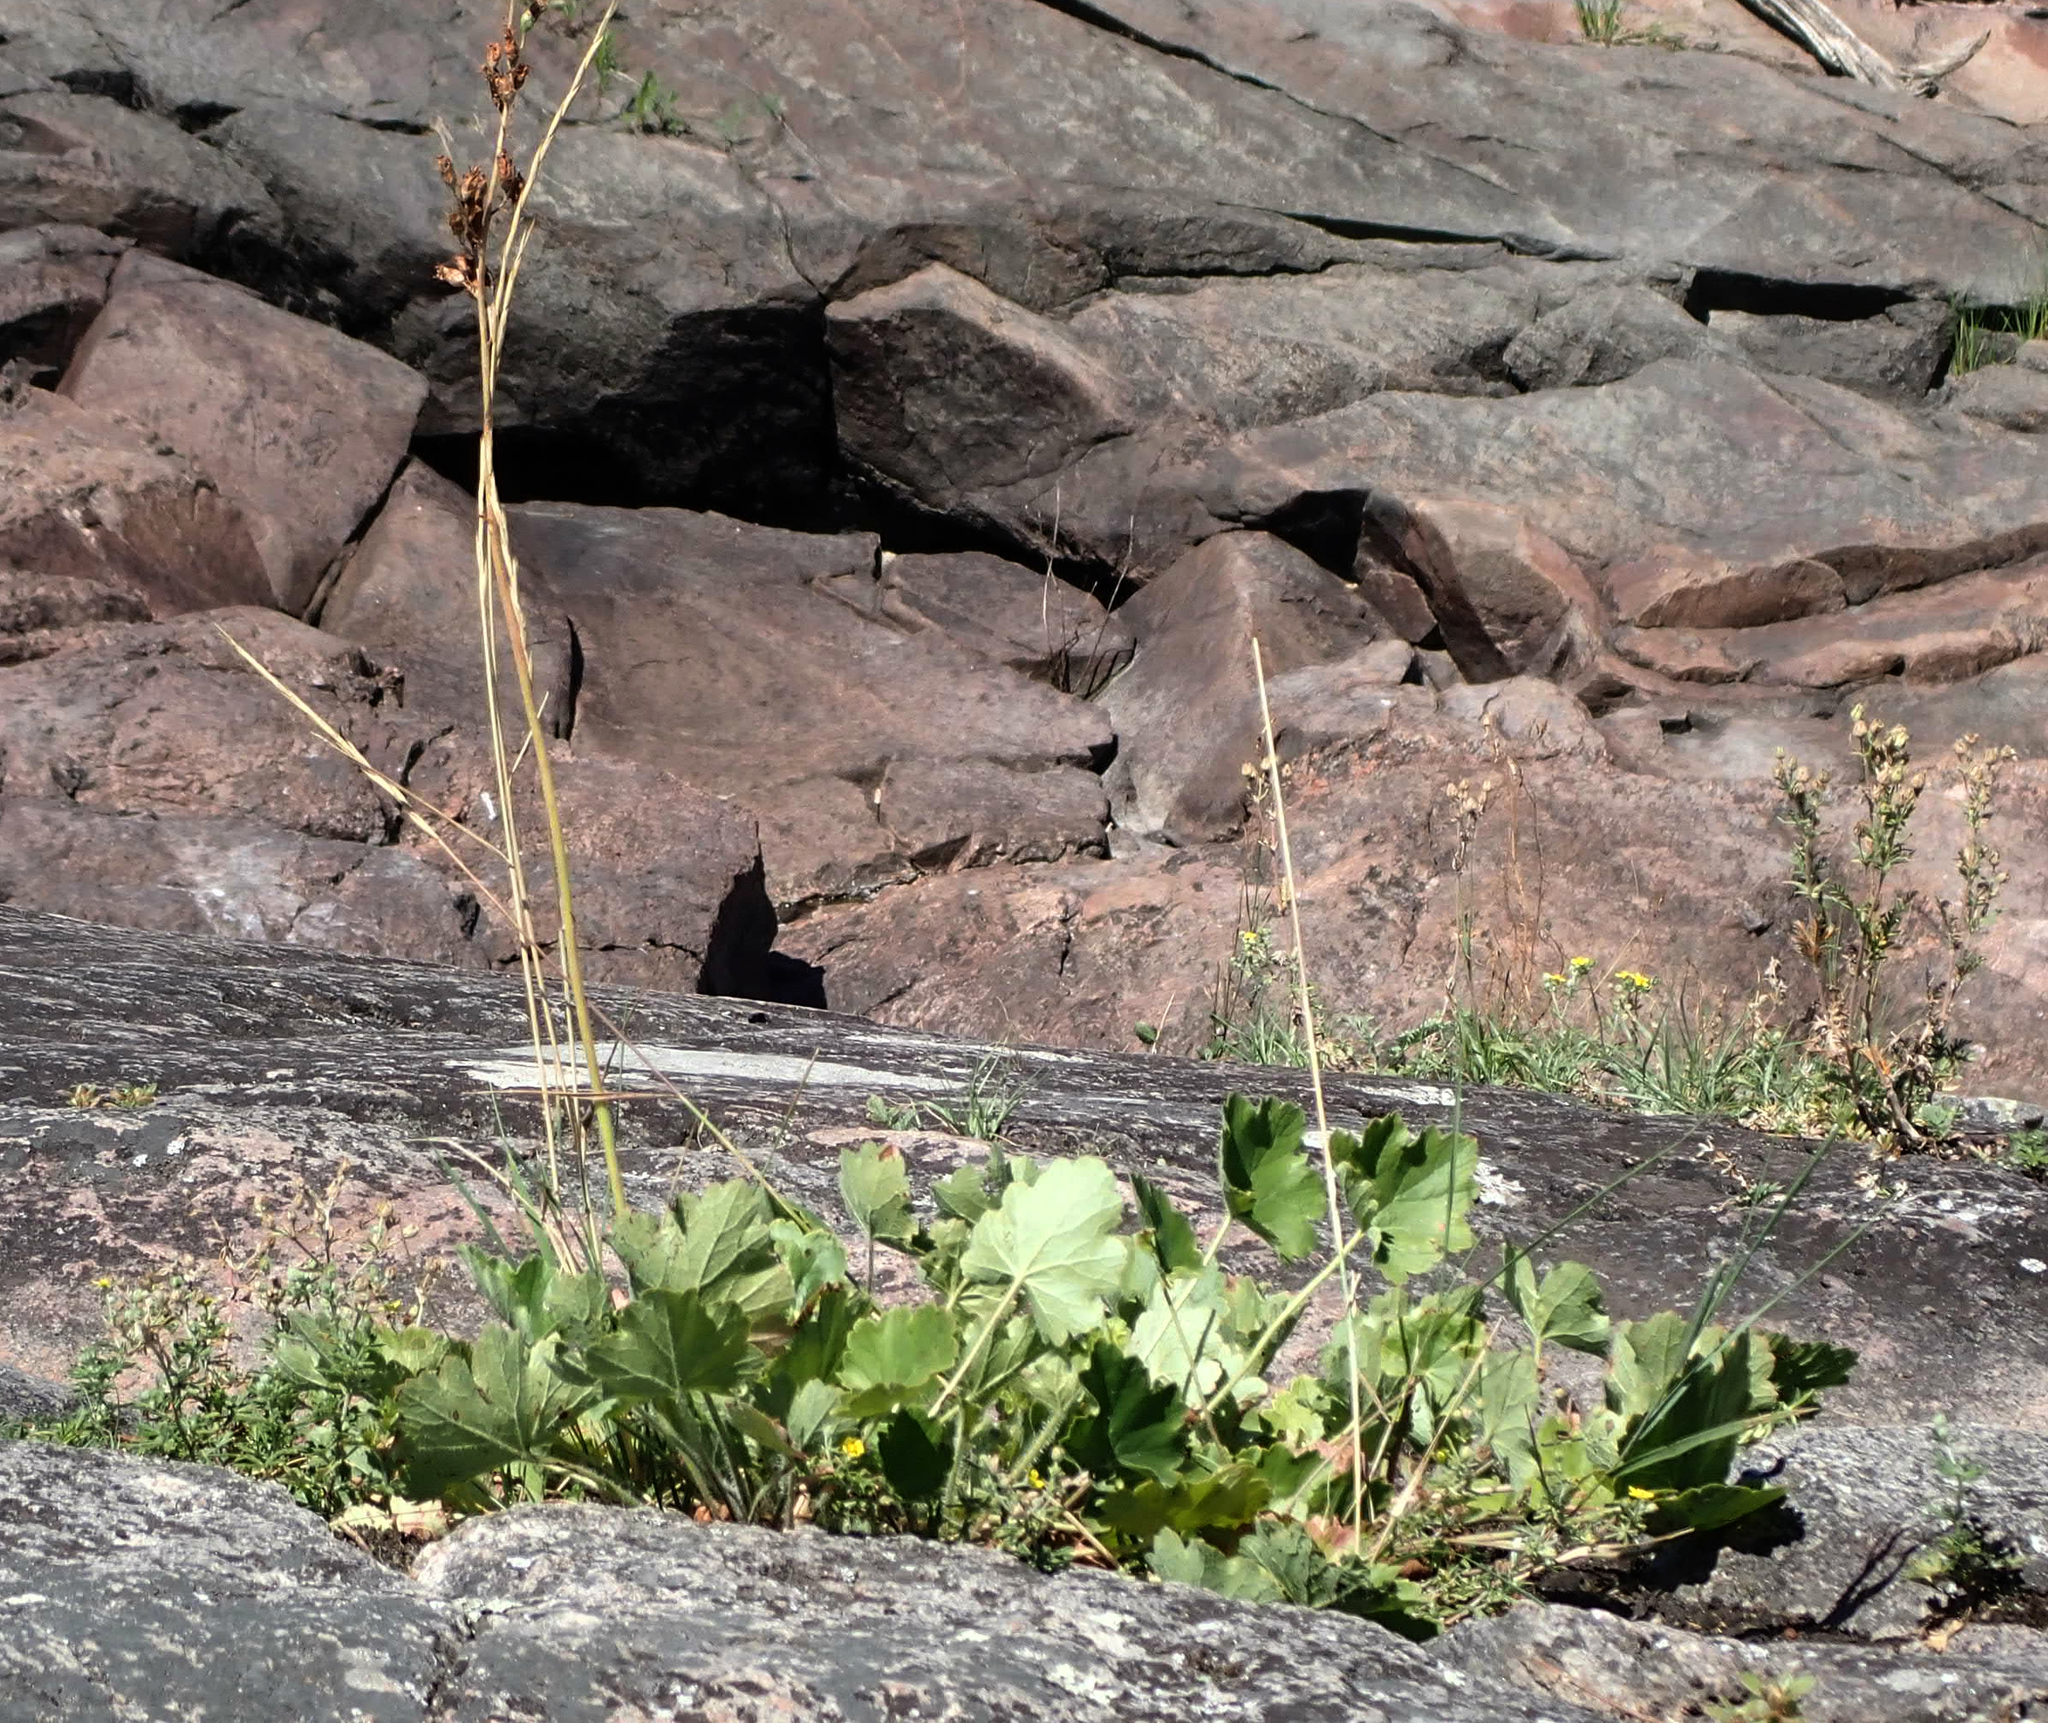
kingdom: Plantae
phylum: Tracheophyta
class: Magnoliopsida
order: Saxifragales
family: Saxifragaceae
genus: Heuchera
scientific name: Heuchera richardsonii
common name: Richardson's alumroot
